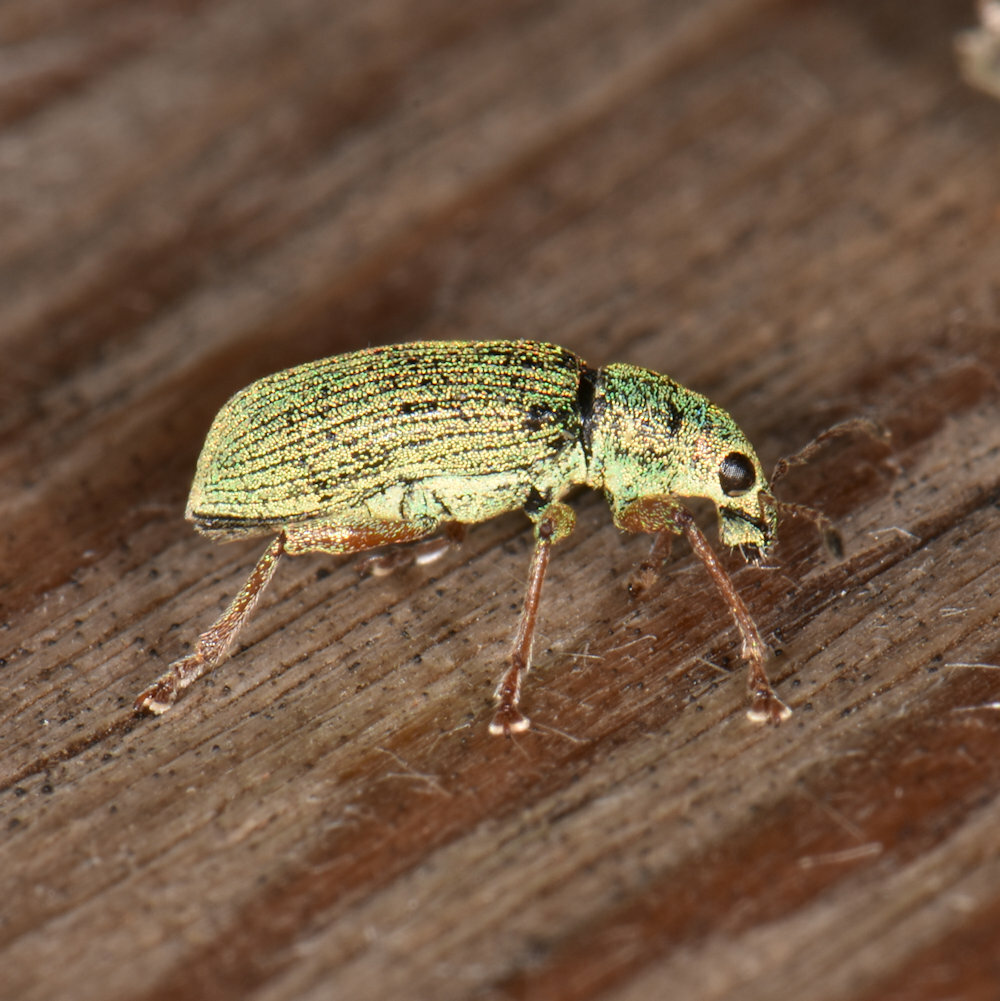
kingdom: Animalia
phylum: Arthropoda
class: Insecta
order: Coleoptera
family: Curculionidae
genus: Polydrusus
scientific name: Polydrusus formosus
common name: Weevil
